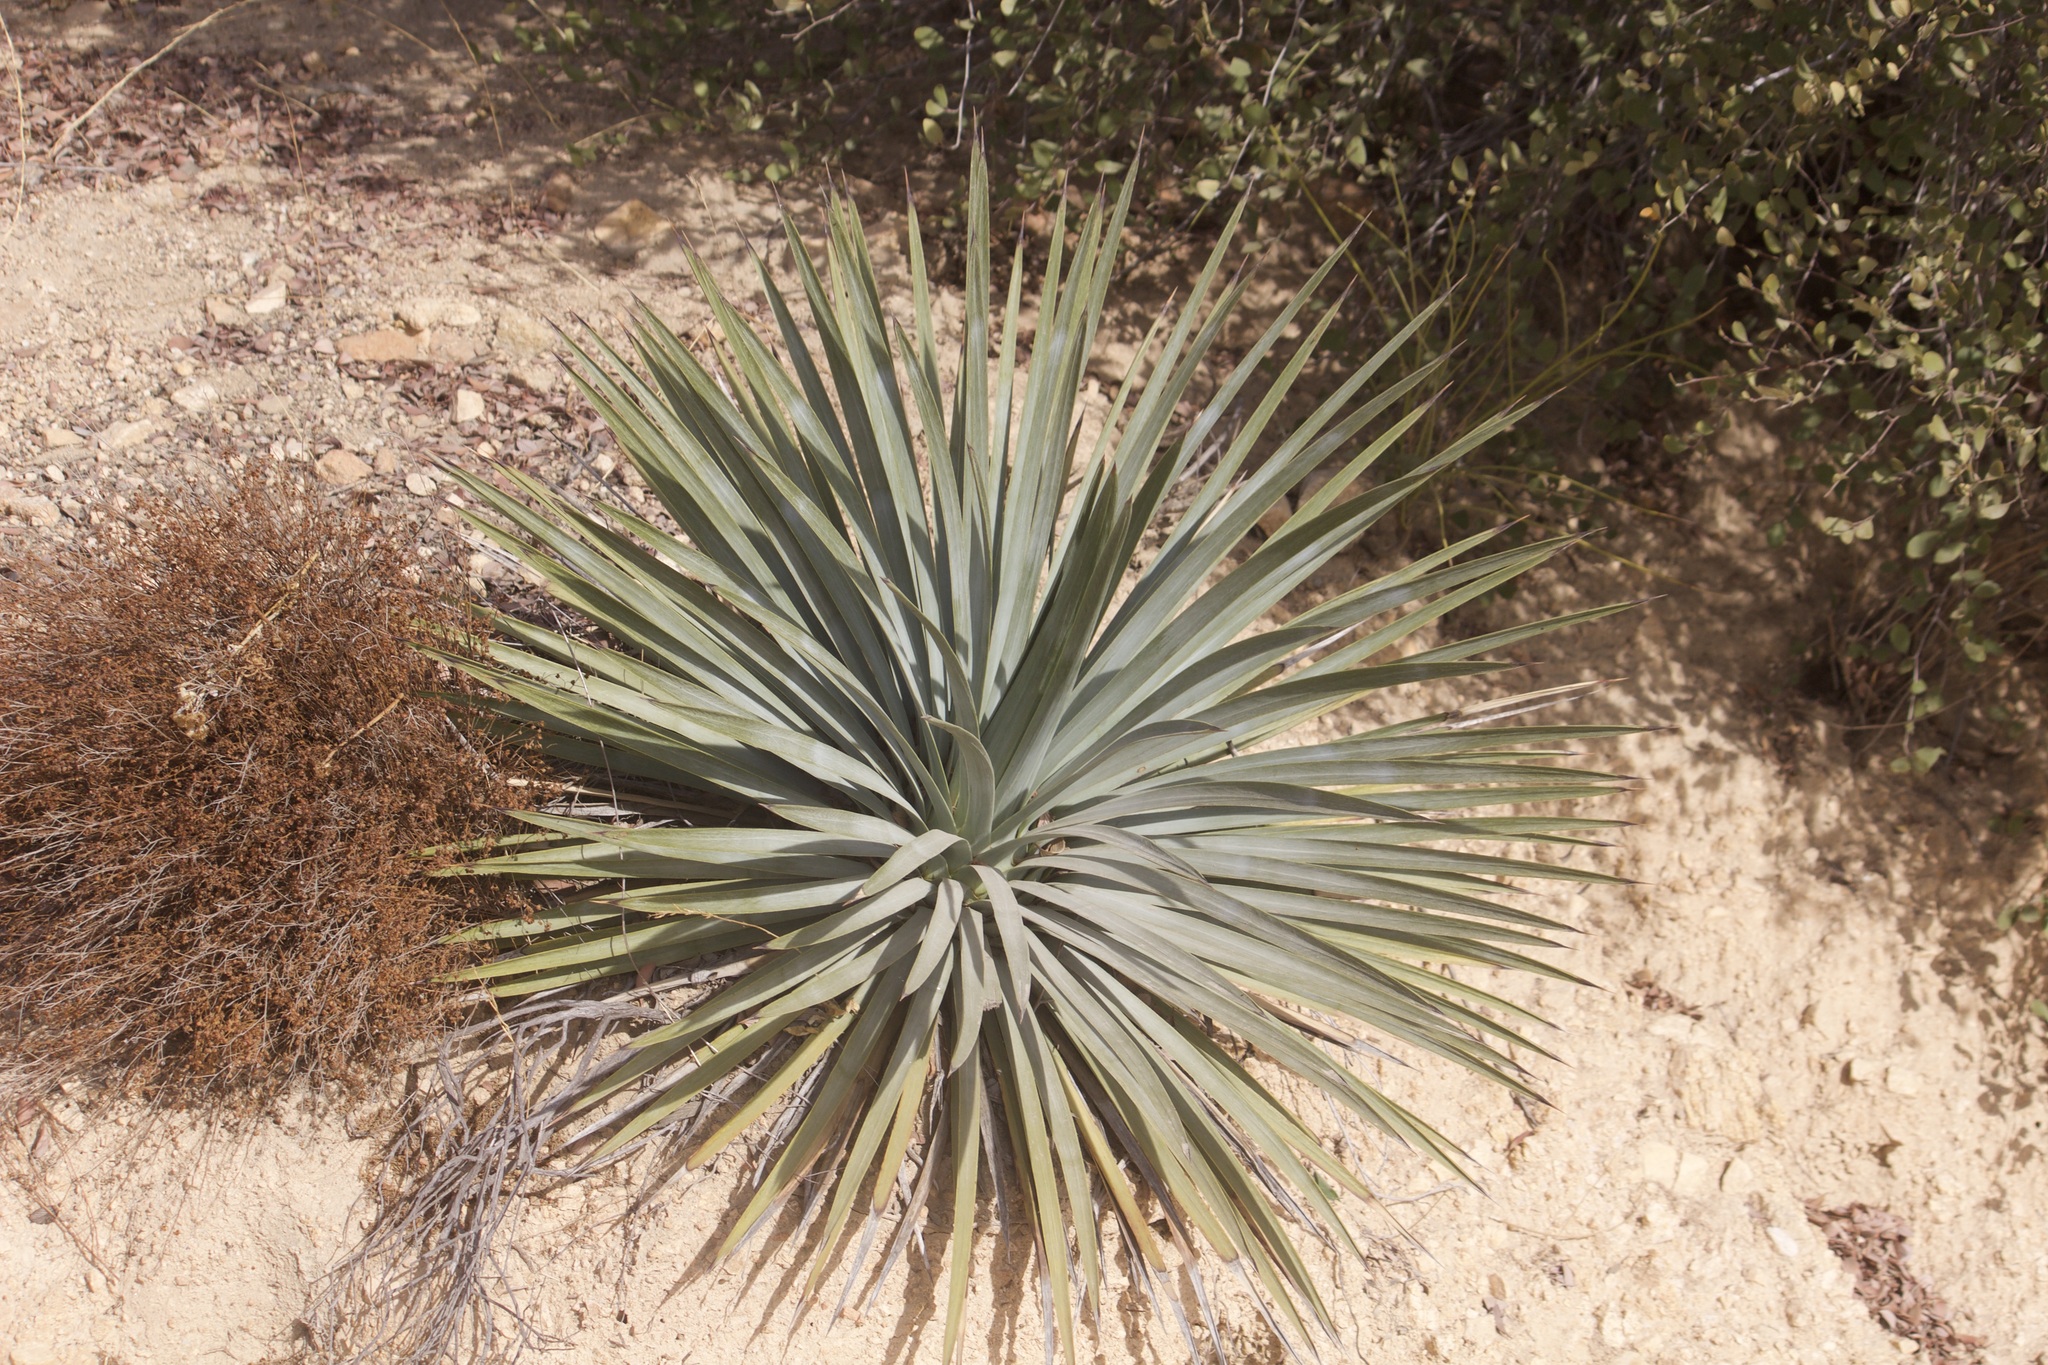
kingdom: Plantae
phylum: Tracheophyta
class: Liliopsida
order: Asparagales
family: Asparagaceae
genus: Hesperoyucca
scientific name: Hesperoyucca whipplei
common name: Our lord's-candle
